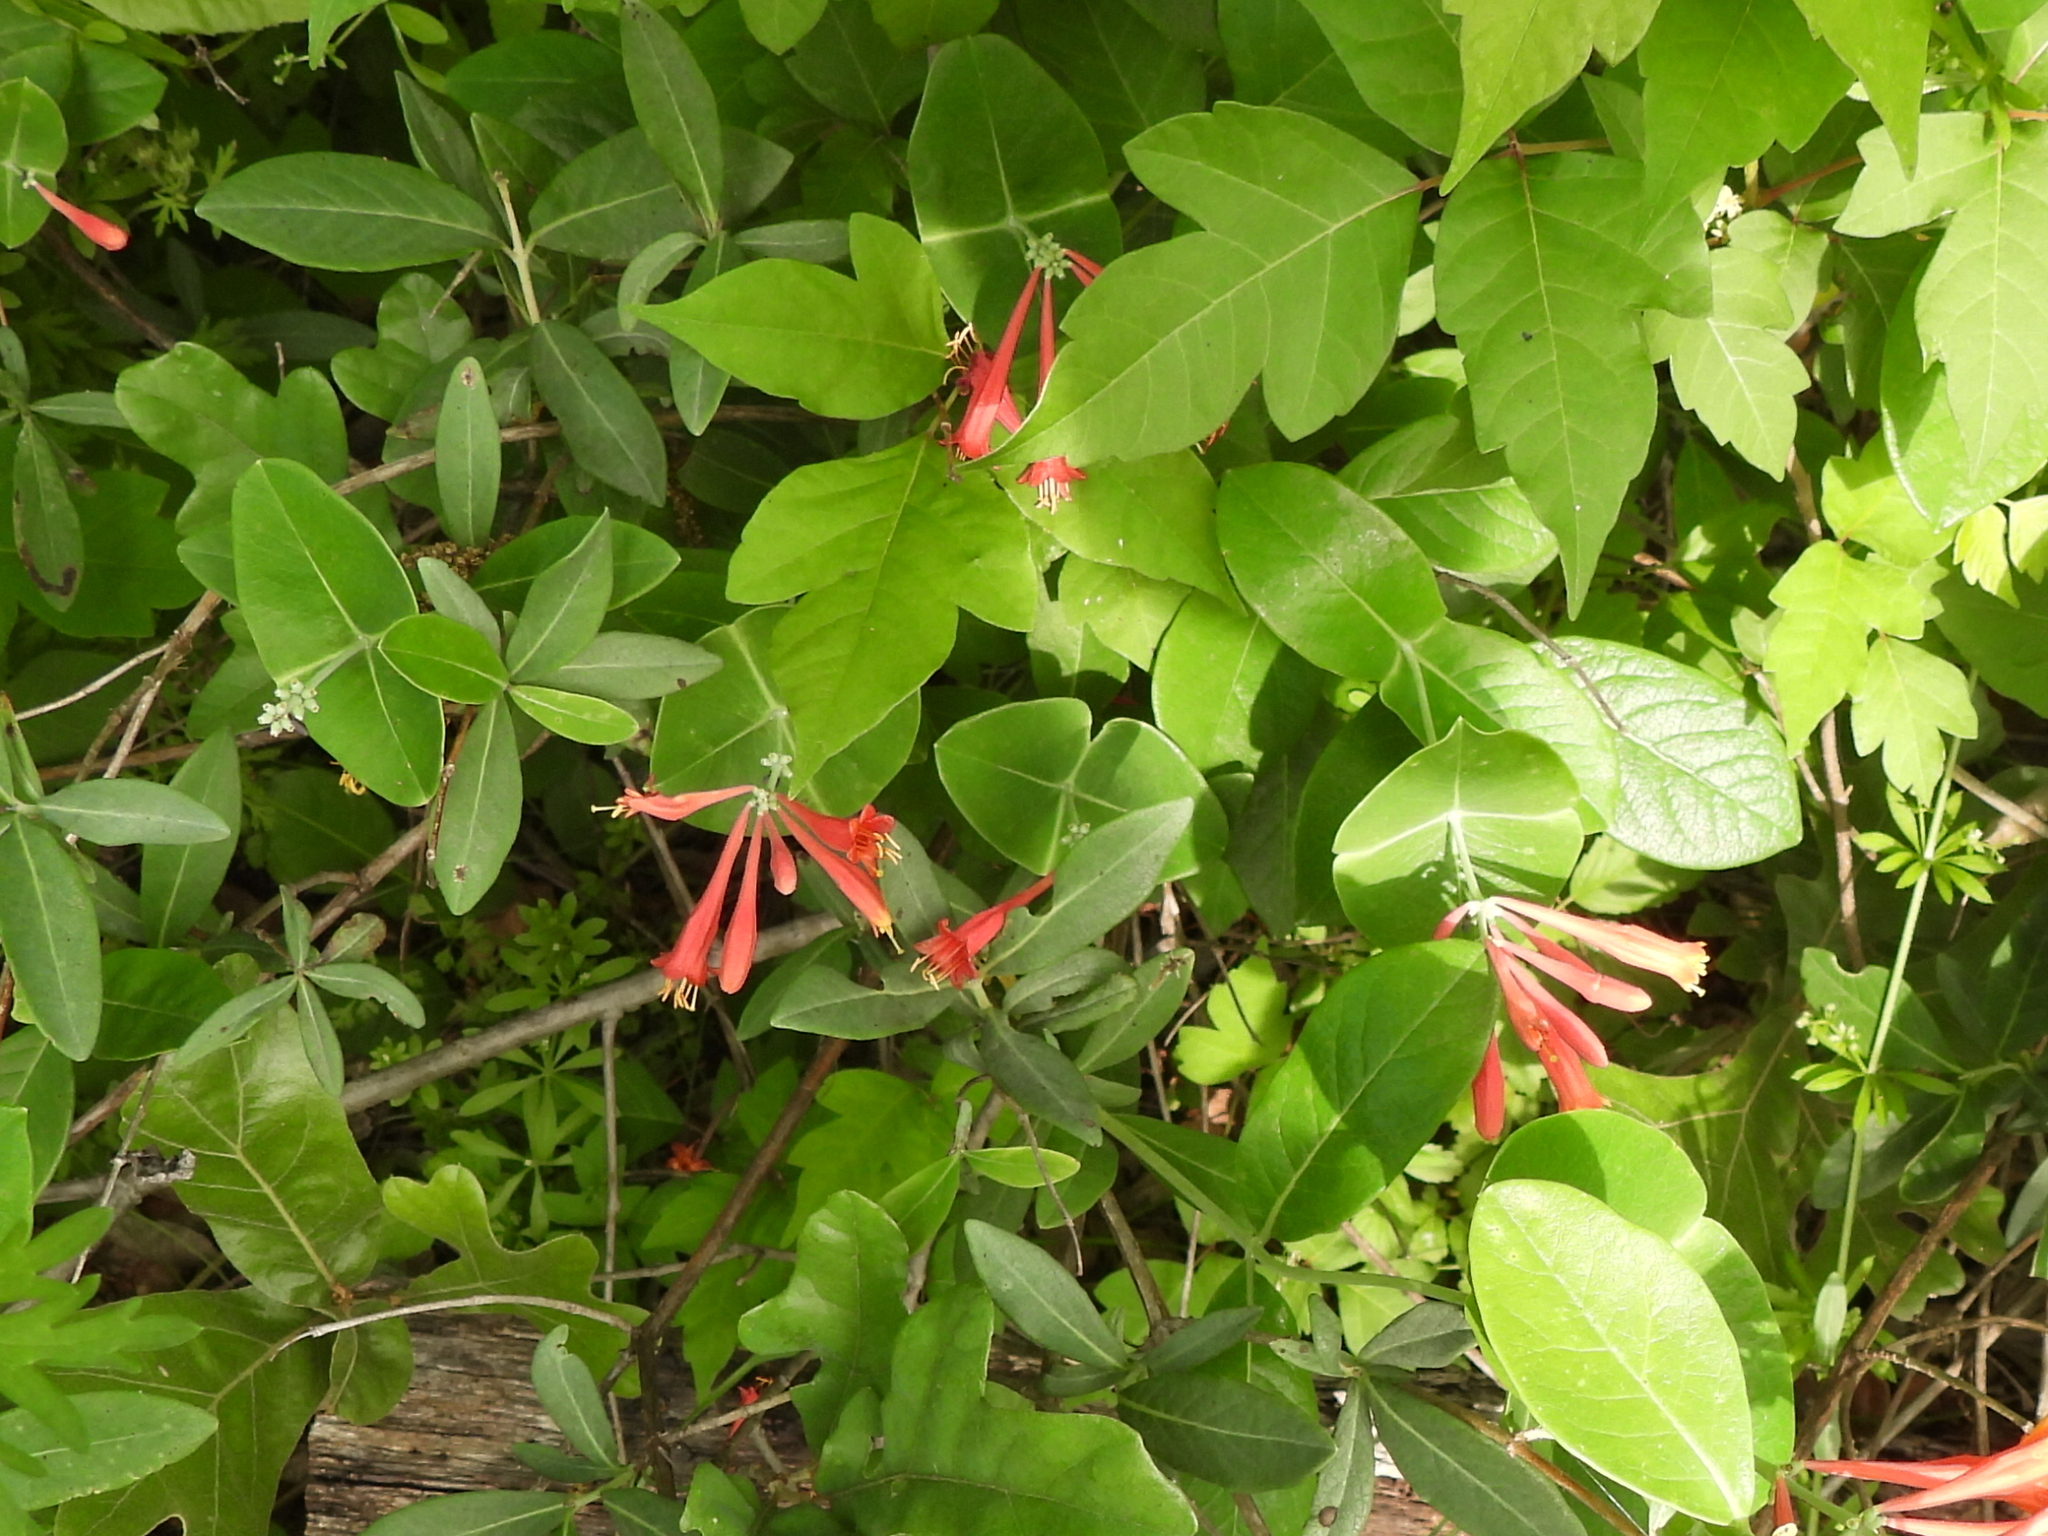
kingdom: Plantae
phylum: Tracheophyta
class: Magnoliopsida
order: Dipsacales
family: Caprifoliaceae
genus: Lonicera
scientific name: Lonicera sempervirens
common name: Coral honeysuckle
